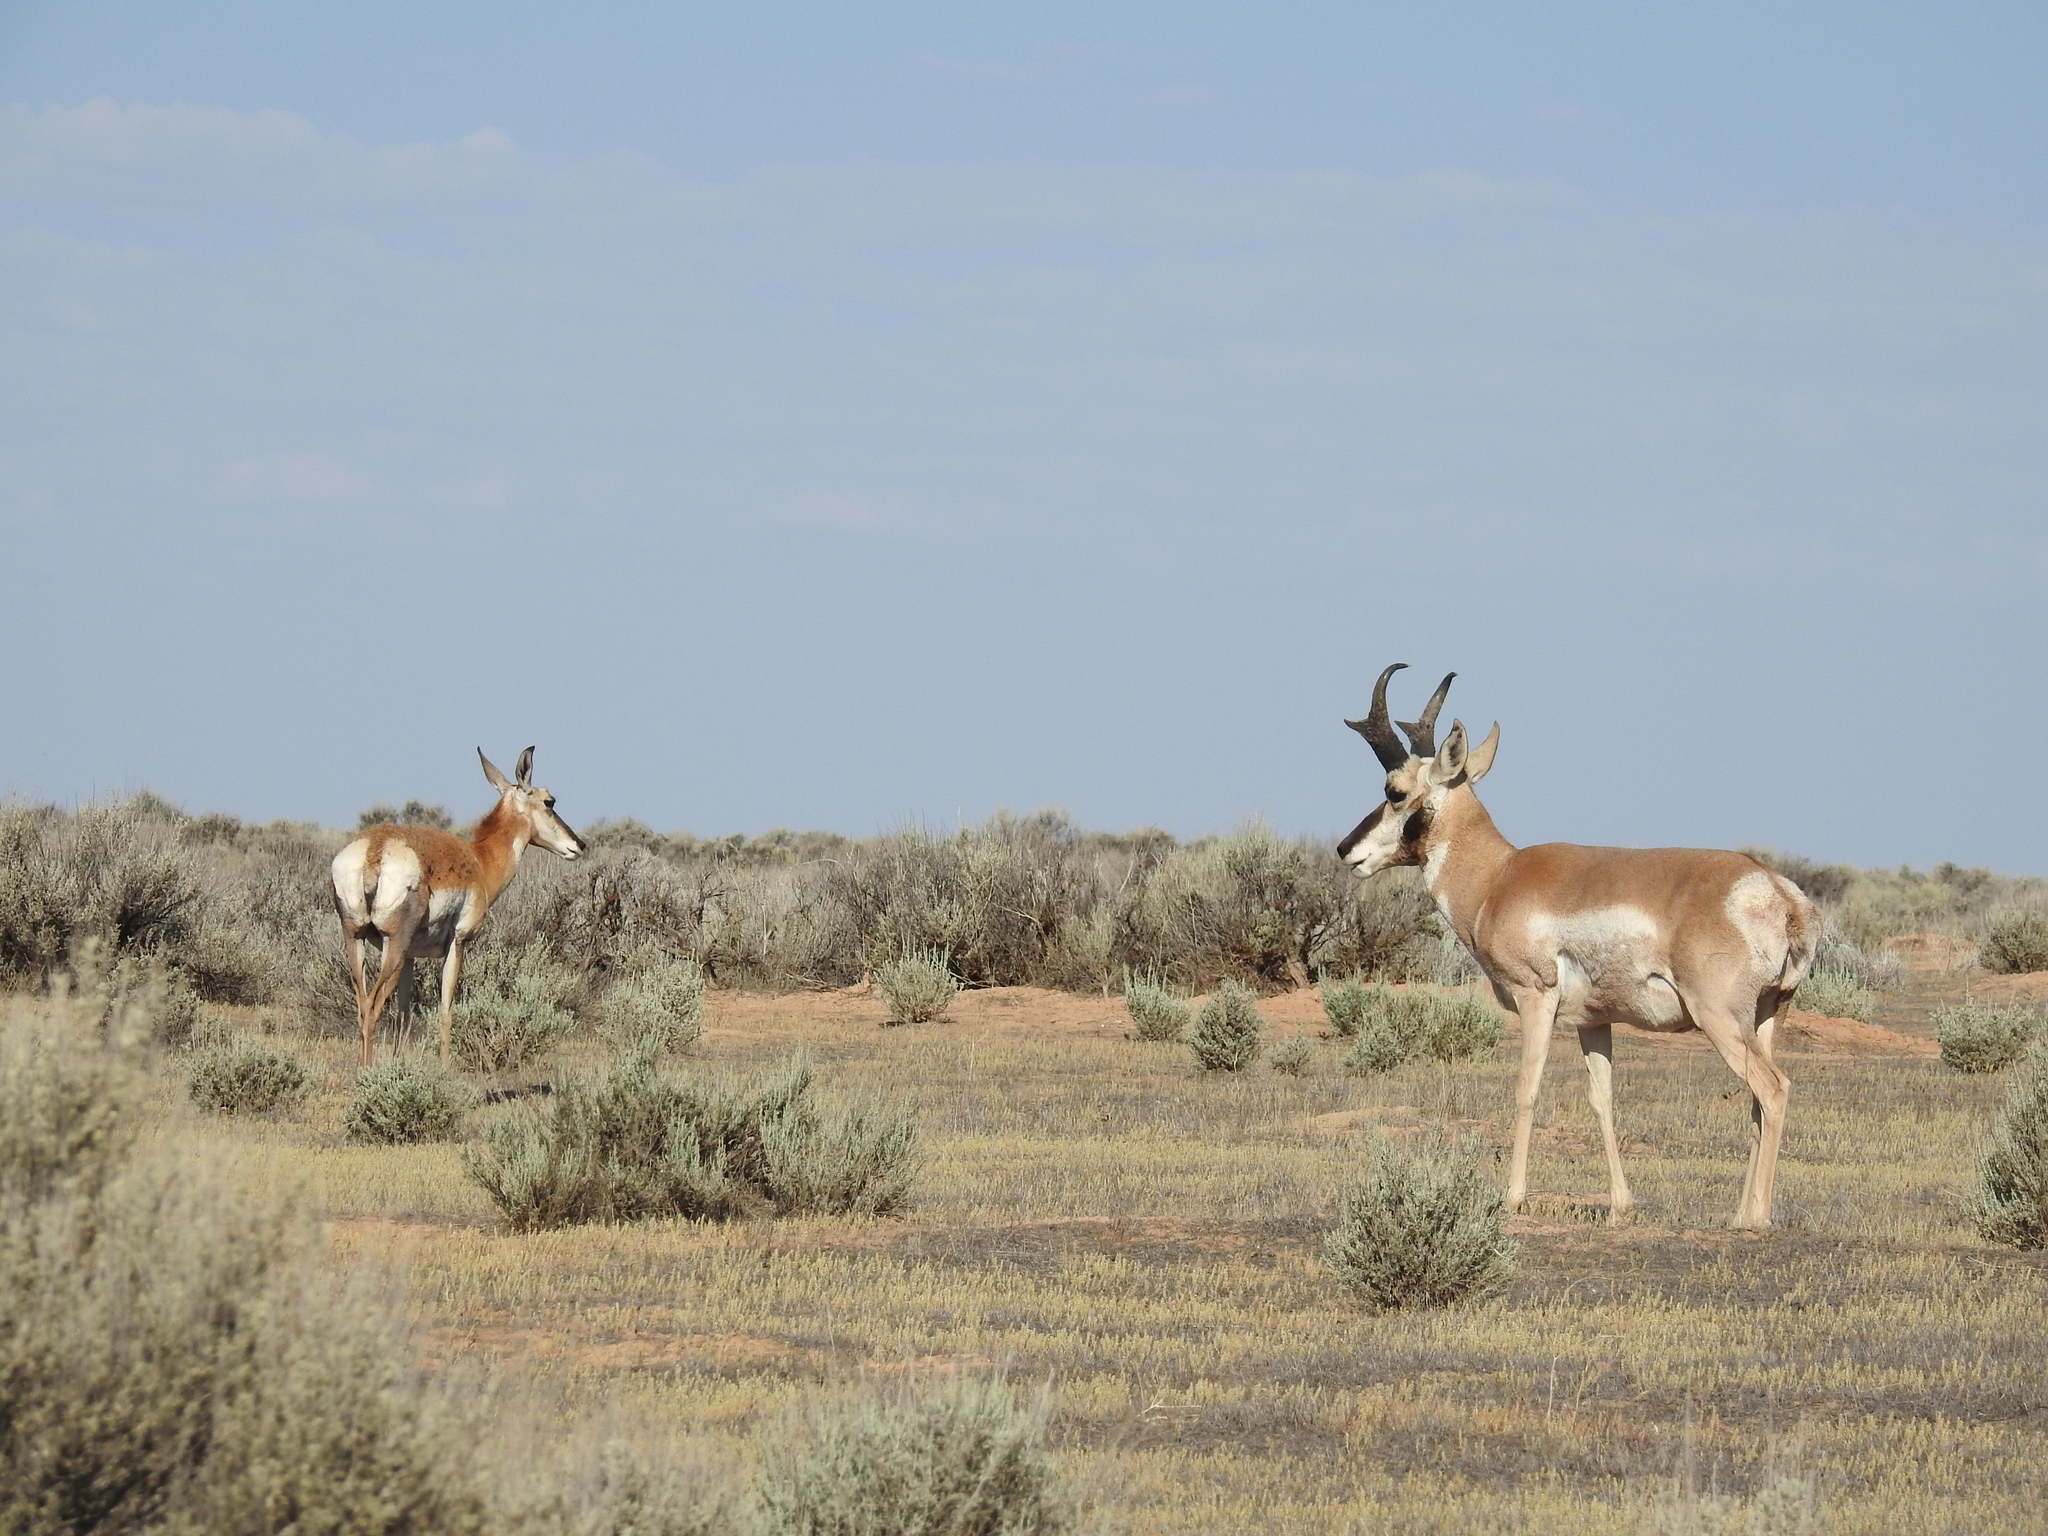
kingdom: Animalia
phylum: Chordata
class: Mammalia
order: Artiodactyla
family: Antilocapridae
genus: Antilocapra
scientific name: Antilocapra americana
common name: Pronghorn
